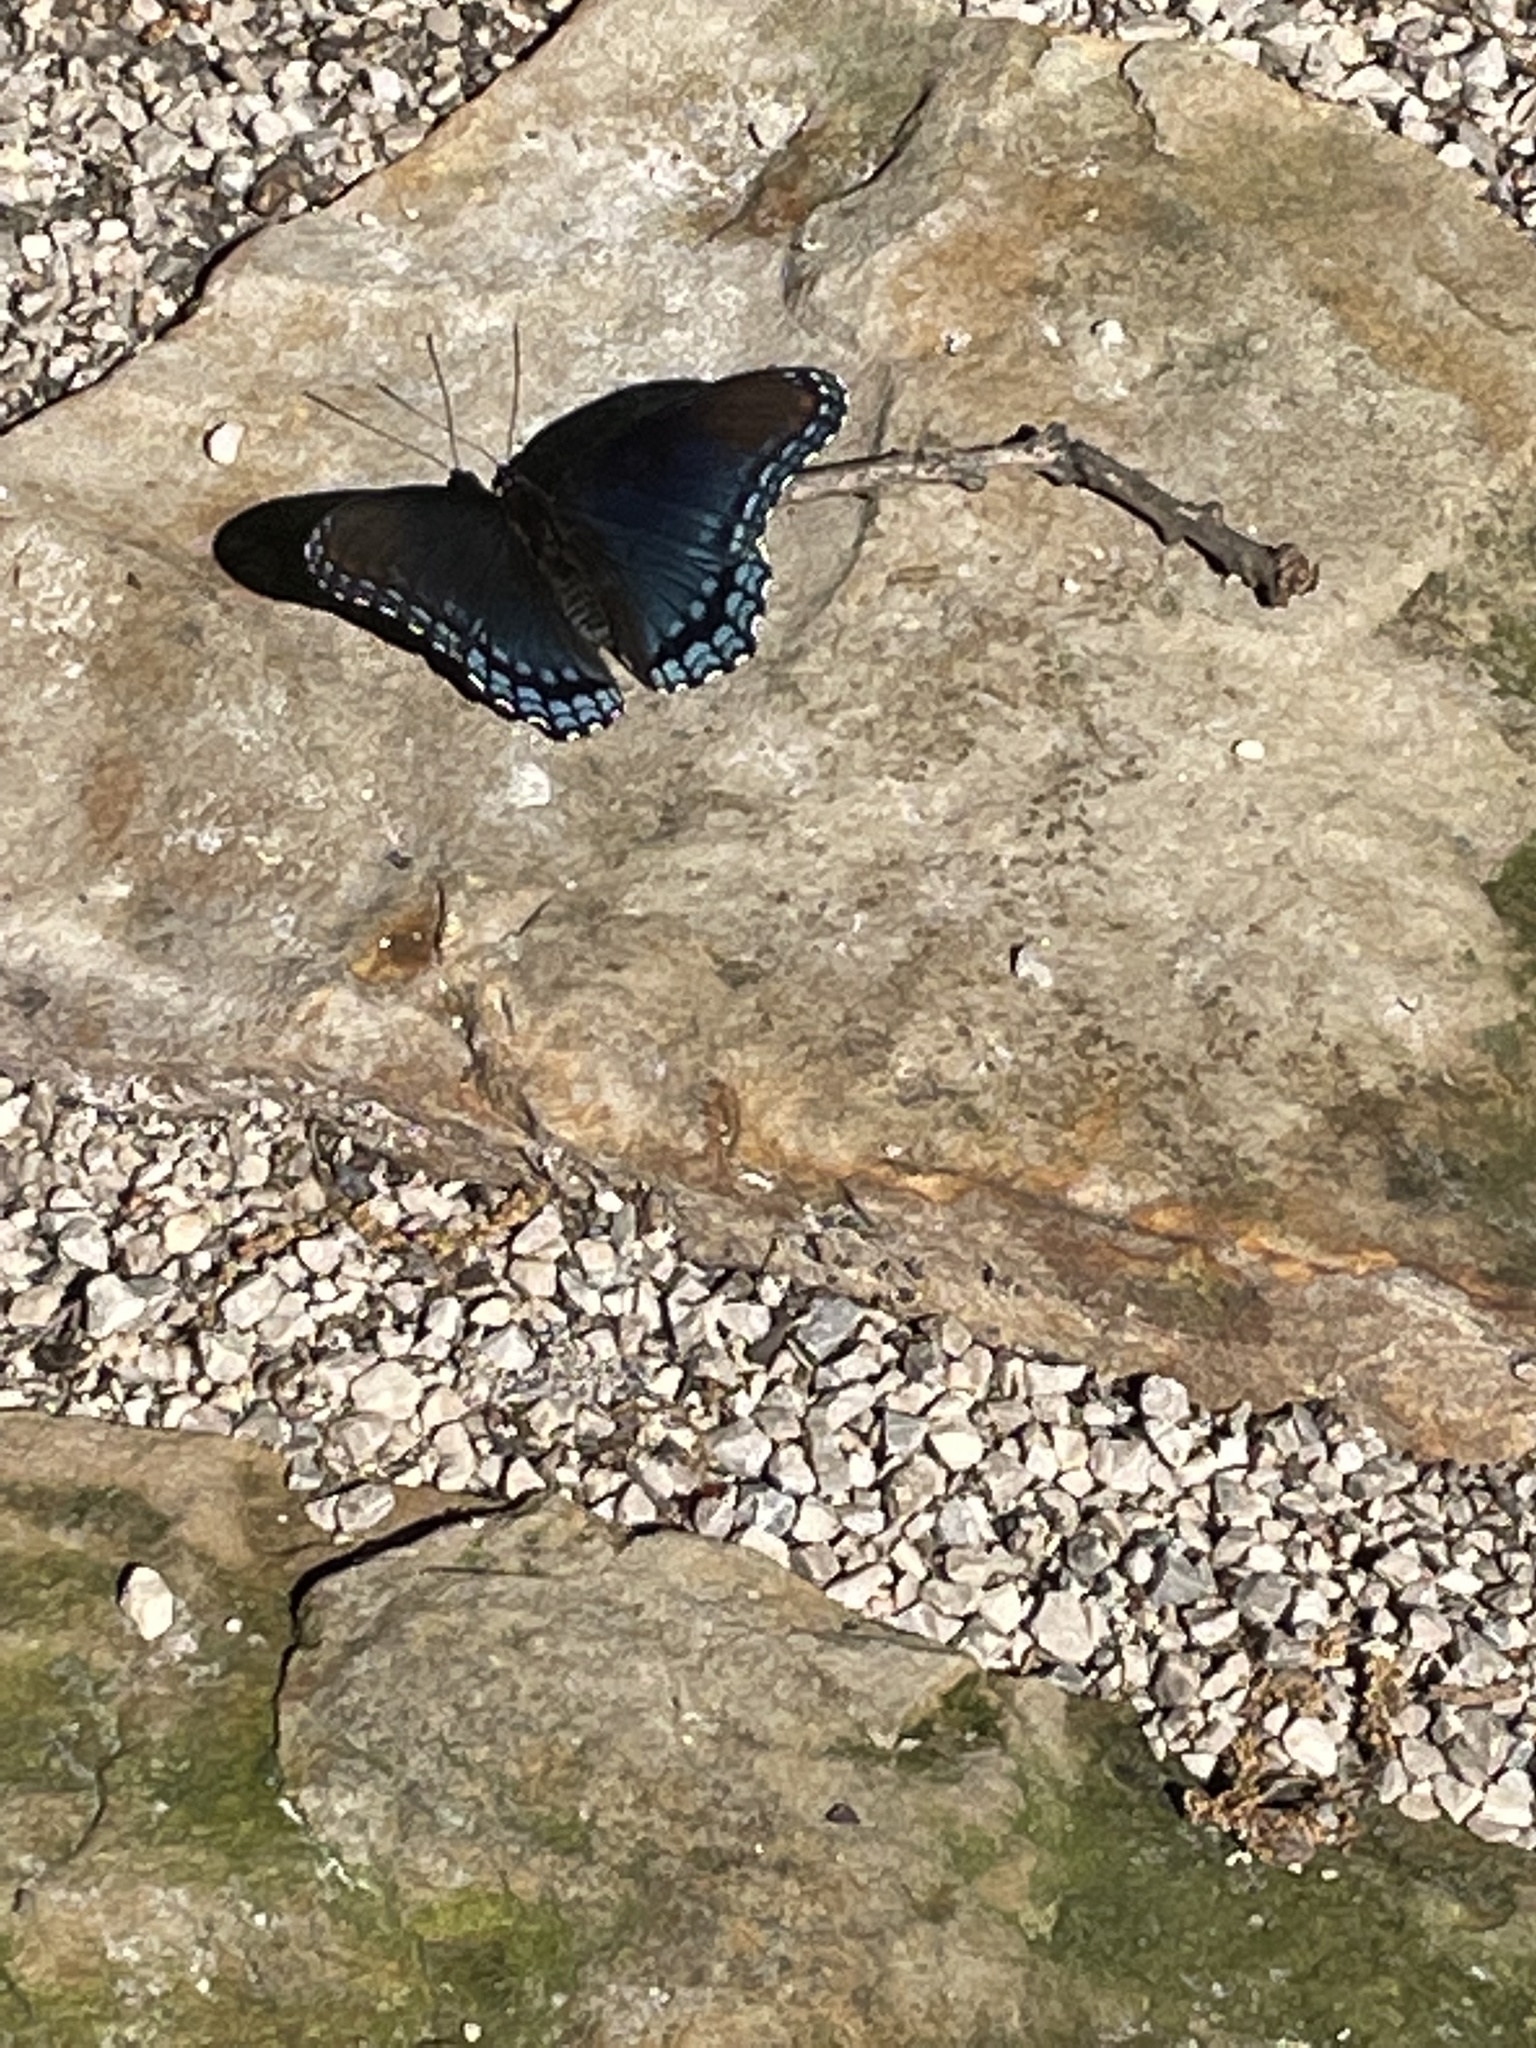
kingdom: Animalia
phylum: Arthropoda
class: Insecta
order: Lepidoptera
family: Nymphalidae
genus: Limenitis
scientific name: Limenitis astyanax
